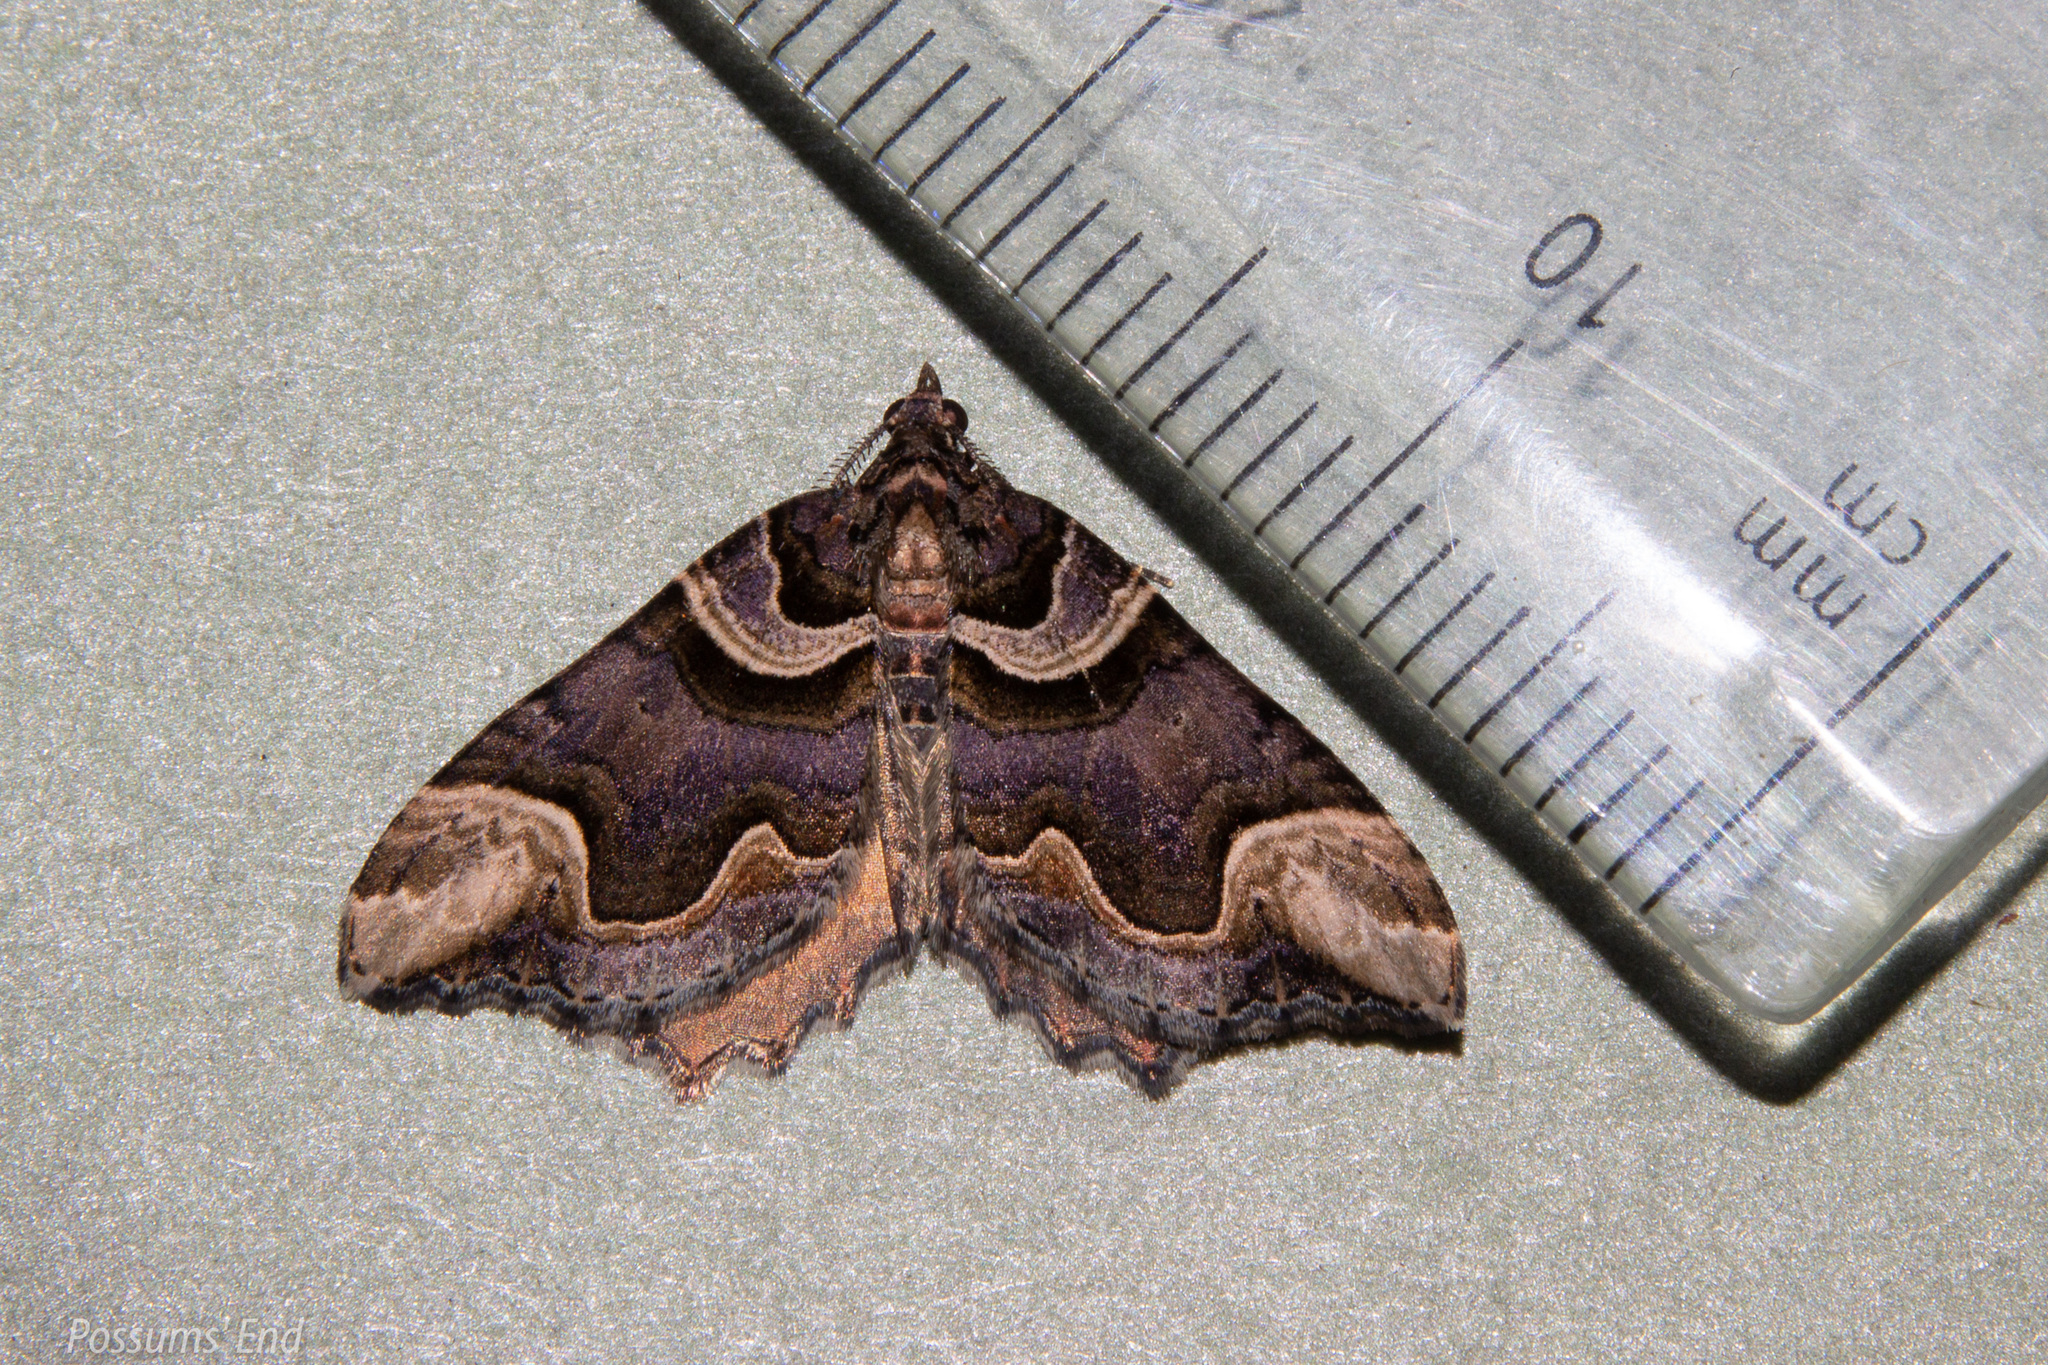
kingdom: Animalia
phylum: Arthropoda
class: Insecta
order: Lepidoptera
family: Geometridae
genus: Asaphodes
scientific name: Asaphodes chlamydota
